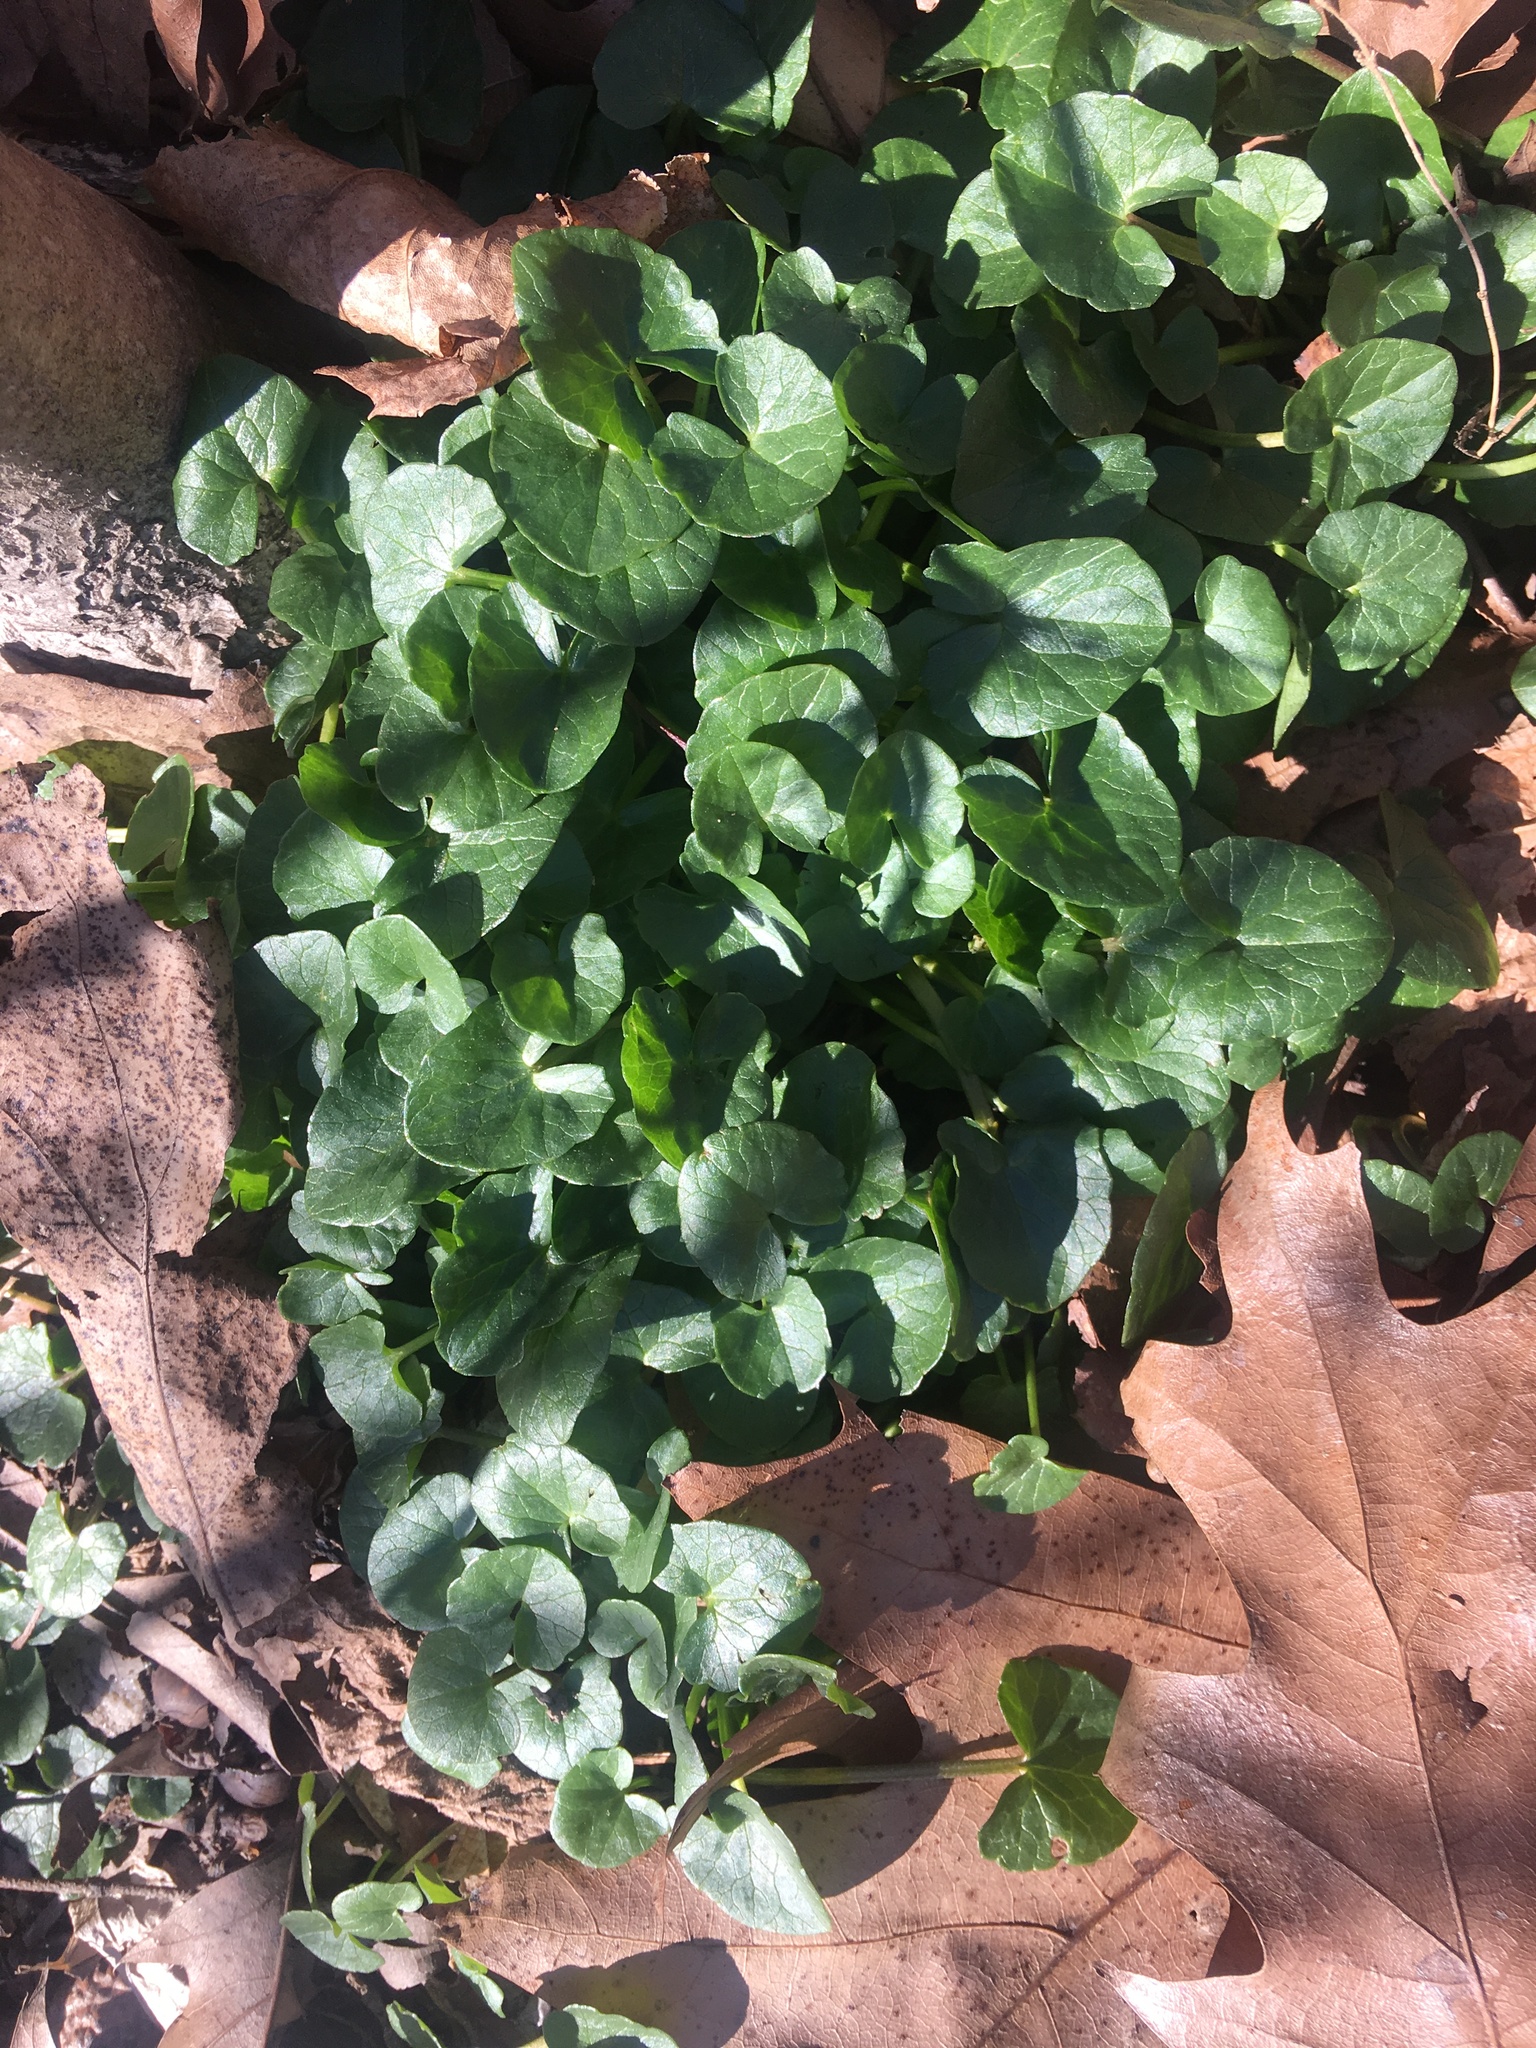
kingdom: Plantae
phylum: Tracheophyta
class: Magnoliopsida
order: Ranunculales
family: Ranunculaceae
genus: Ficaria
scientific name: Ficaria verna
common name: Lesser celandine
